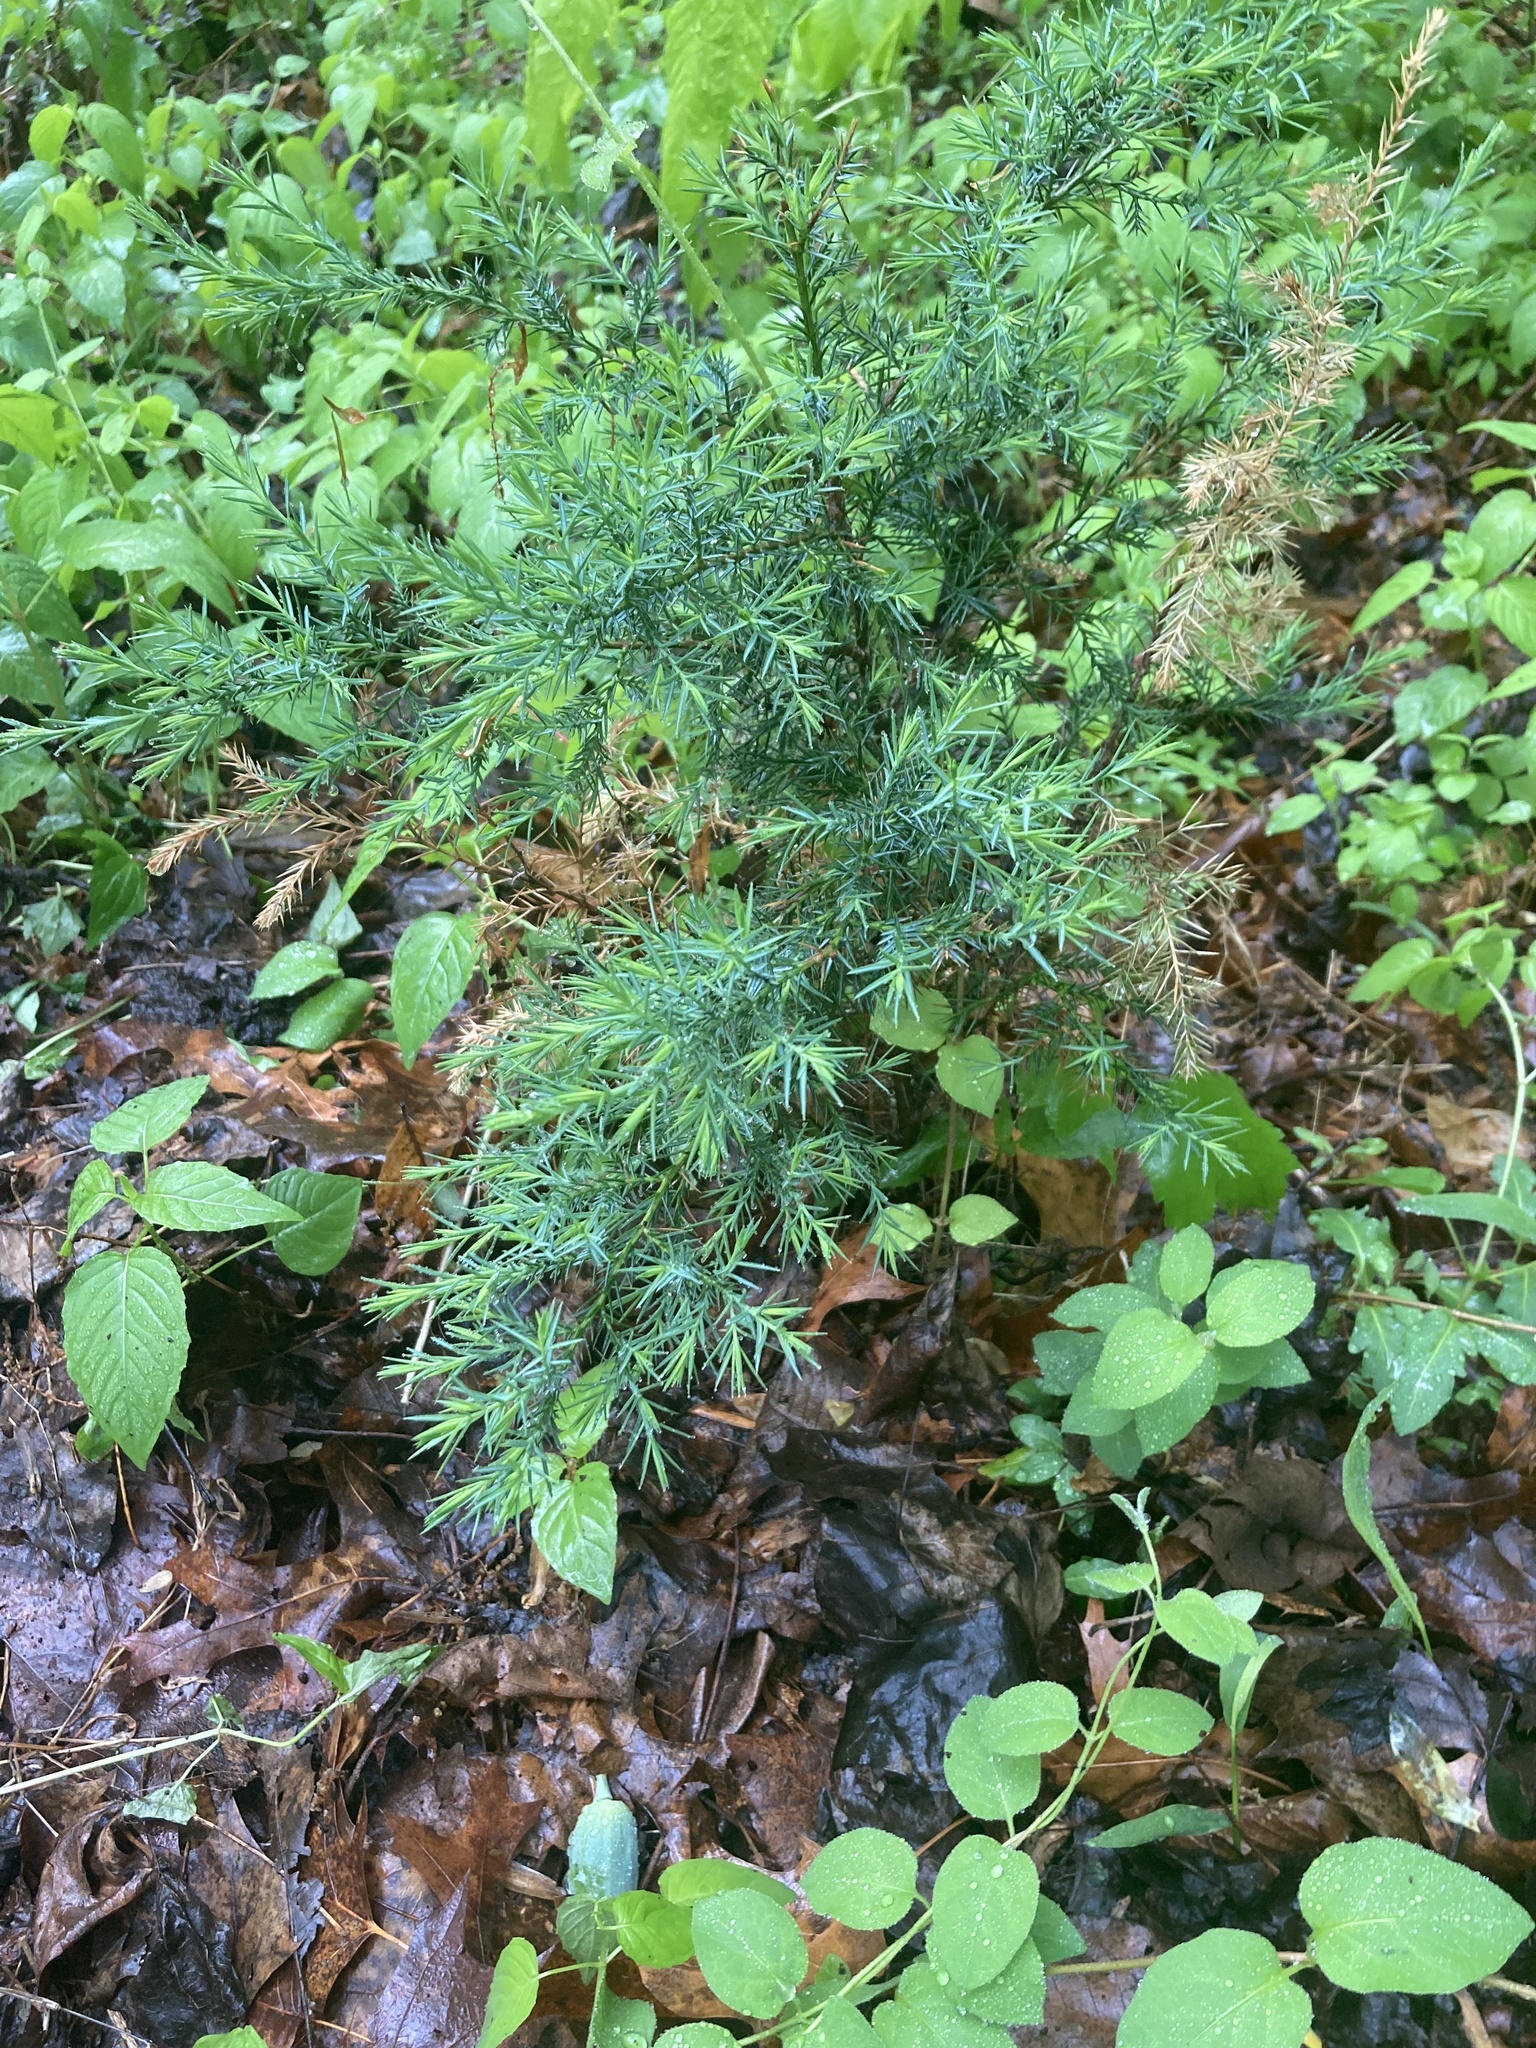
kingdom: Plantae
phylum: Tracheophyta
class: Pinopsida
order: Pinales
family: Cupressaceae
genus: Juniperus
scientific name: Juniperus virginiana
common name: Red juniper
